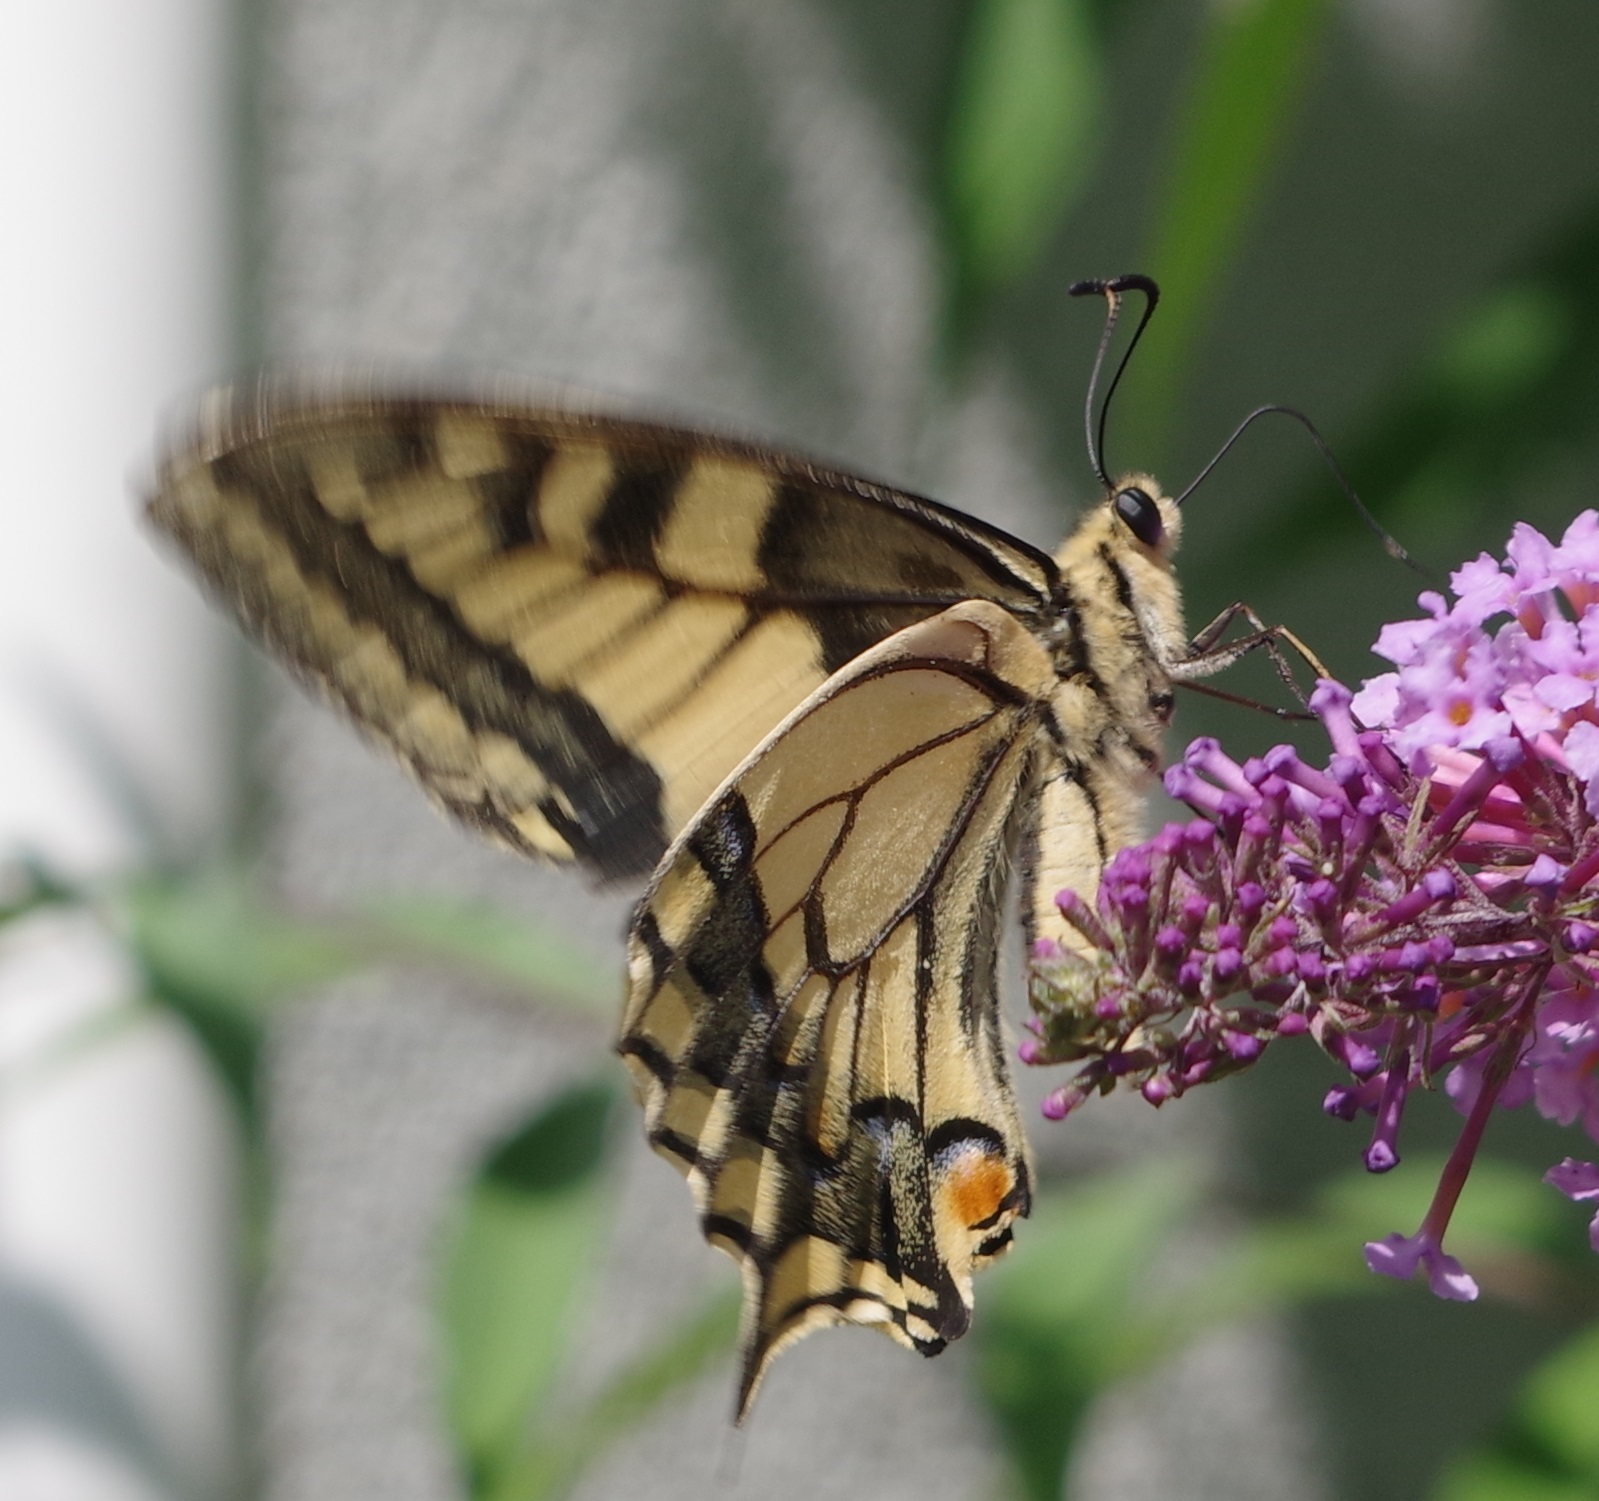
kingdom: Animalia
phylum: Arthropoda
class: Insecta
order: Lepidoptera
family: Papilionidae
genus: Papilio
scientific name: Papilio machaon
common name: Swallowtail
